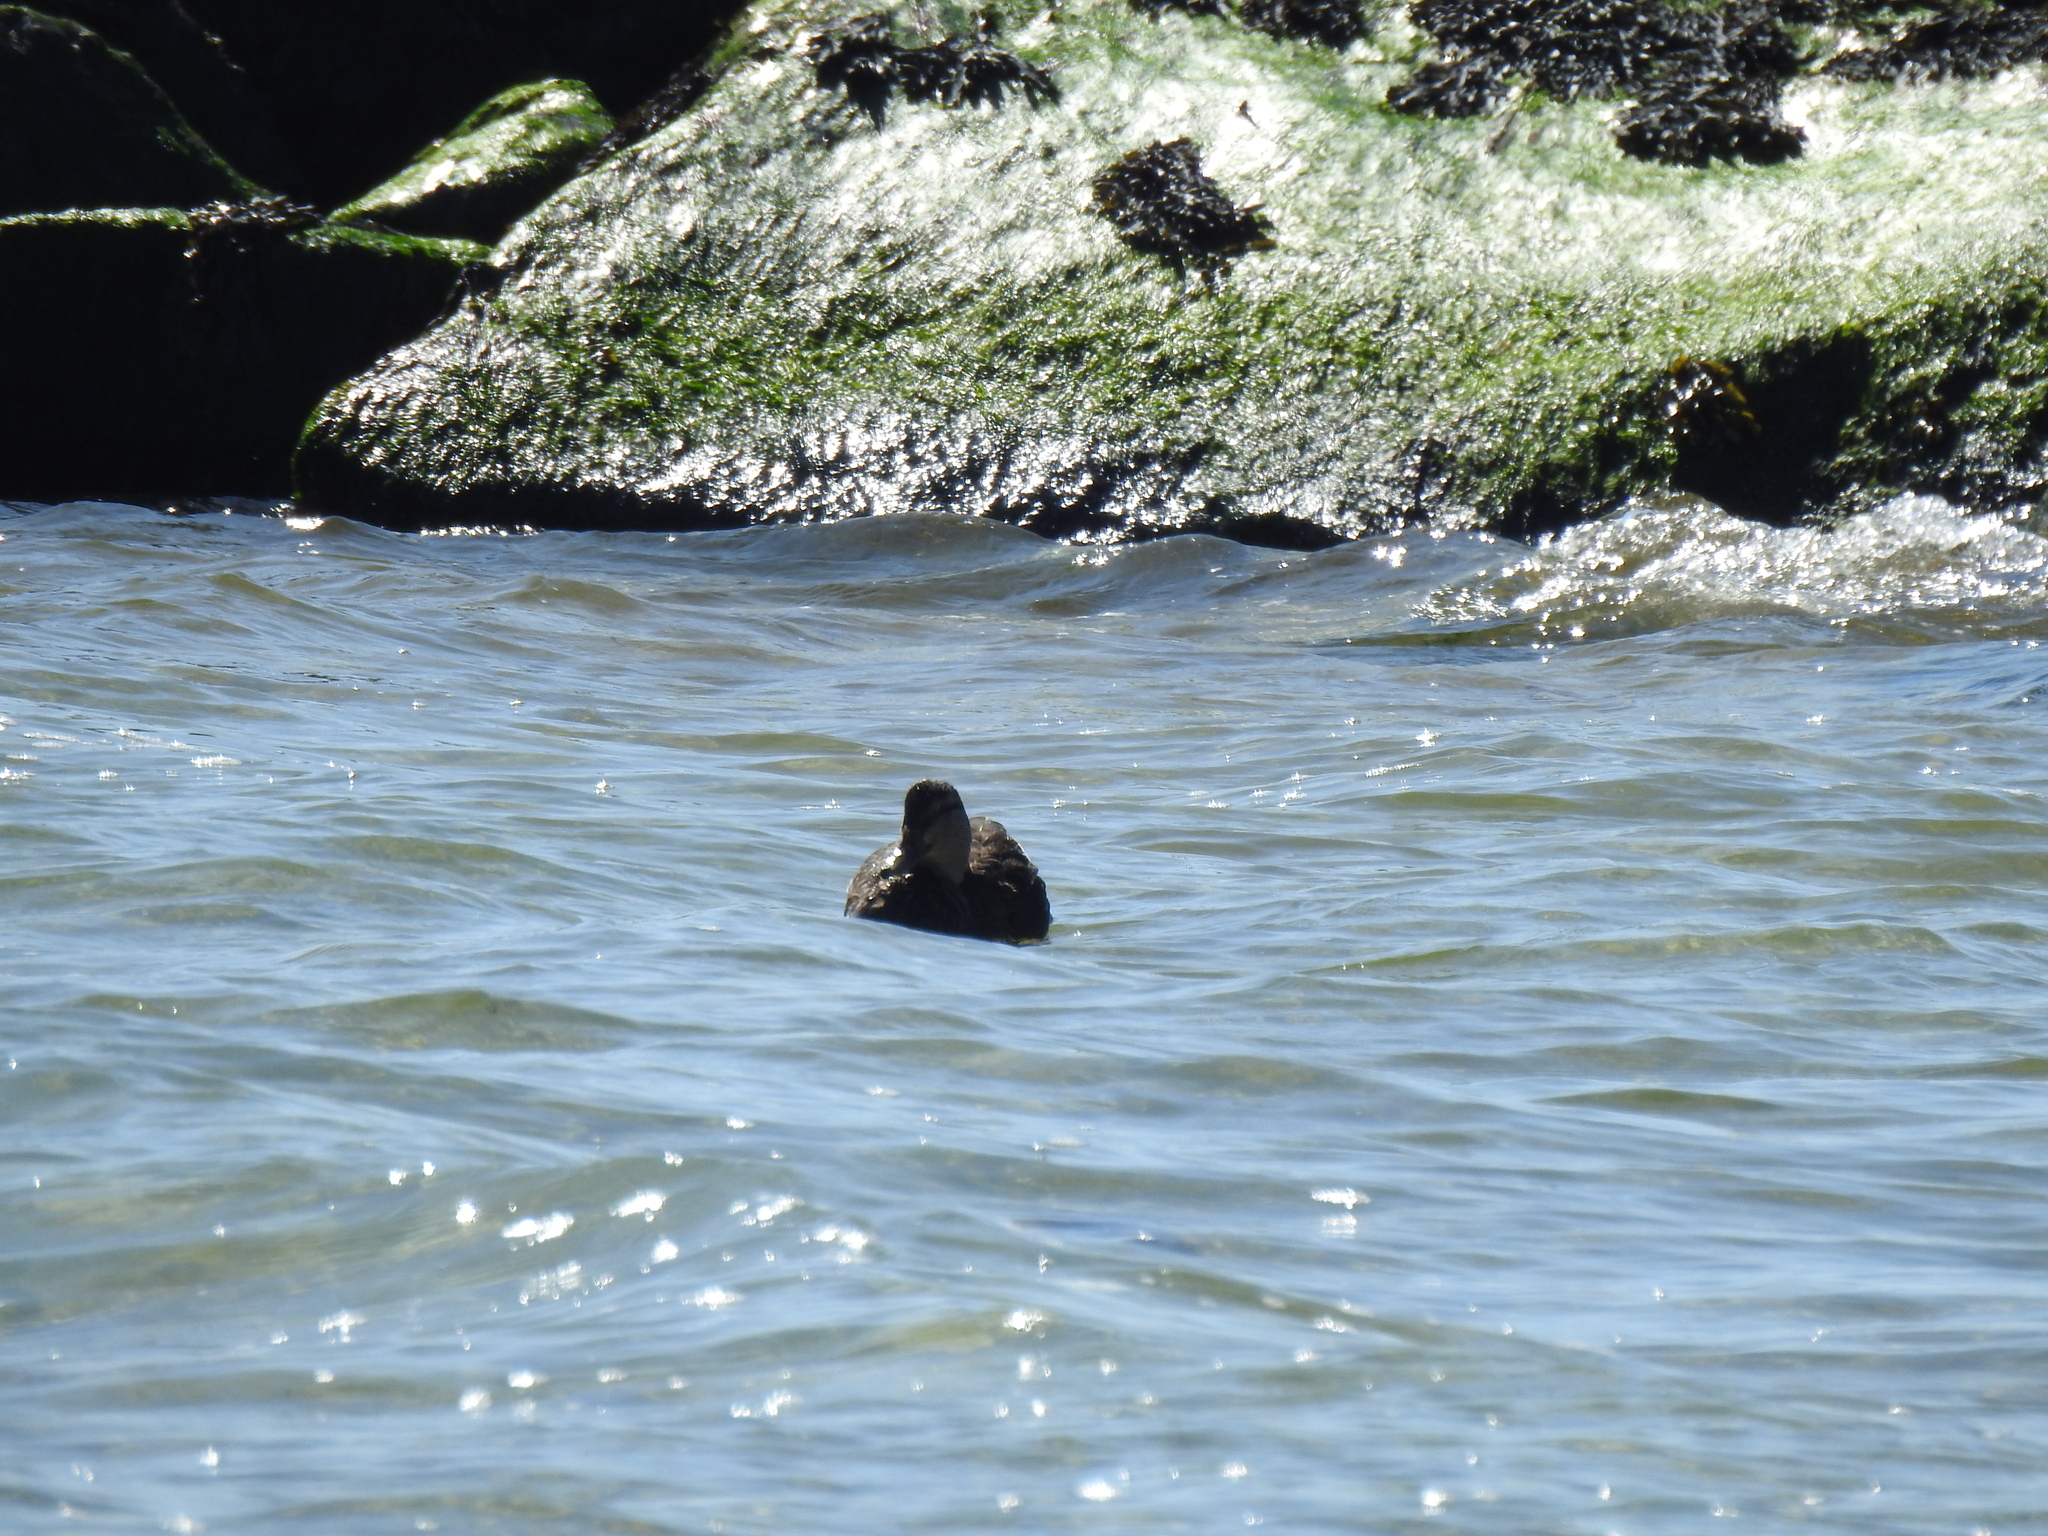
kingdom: Animalia
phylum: Chordata
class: Aves
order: Anseriformes
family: Anatidae
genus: Anas
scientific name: Anas rubripes
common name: American black duck
